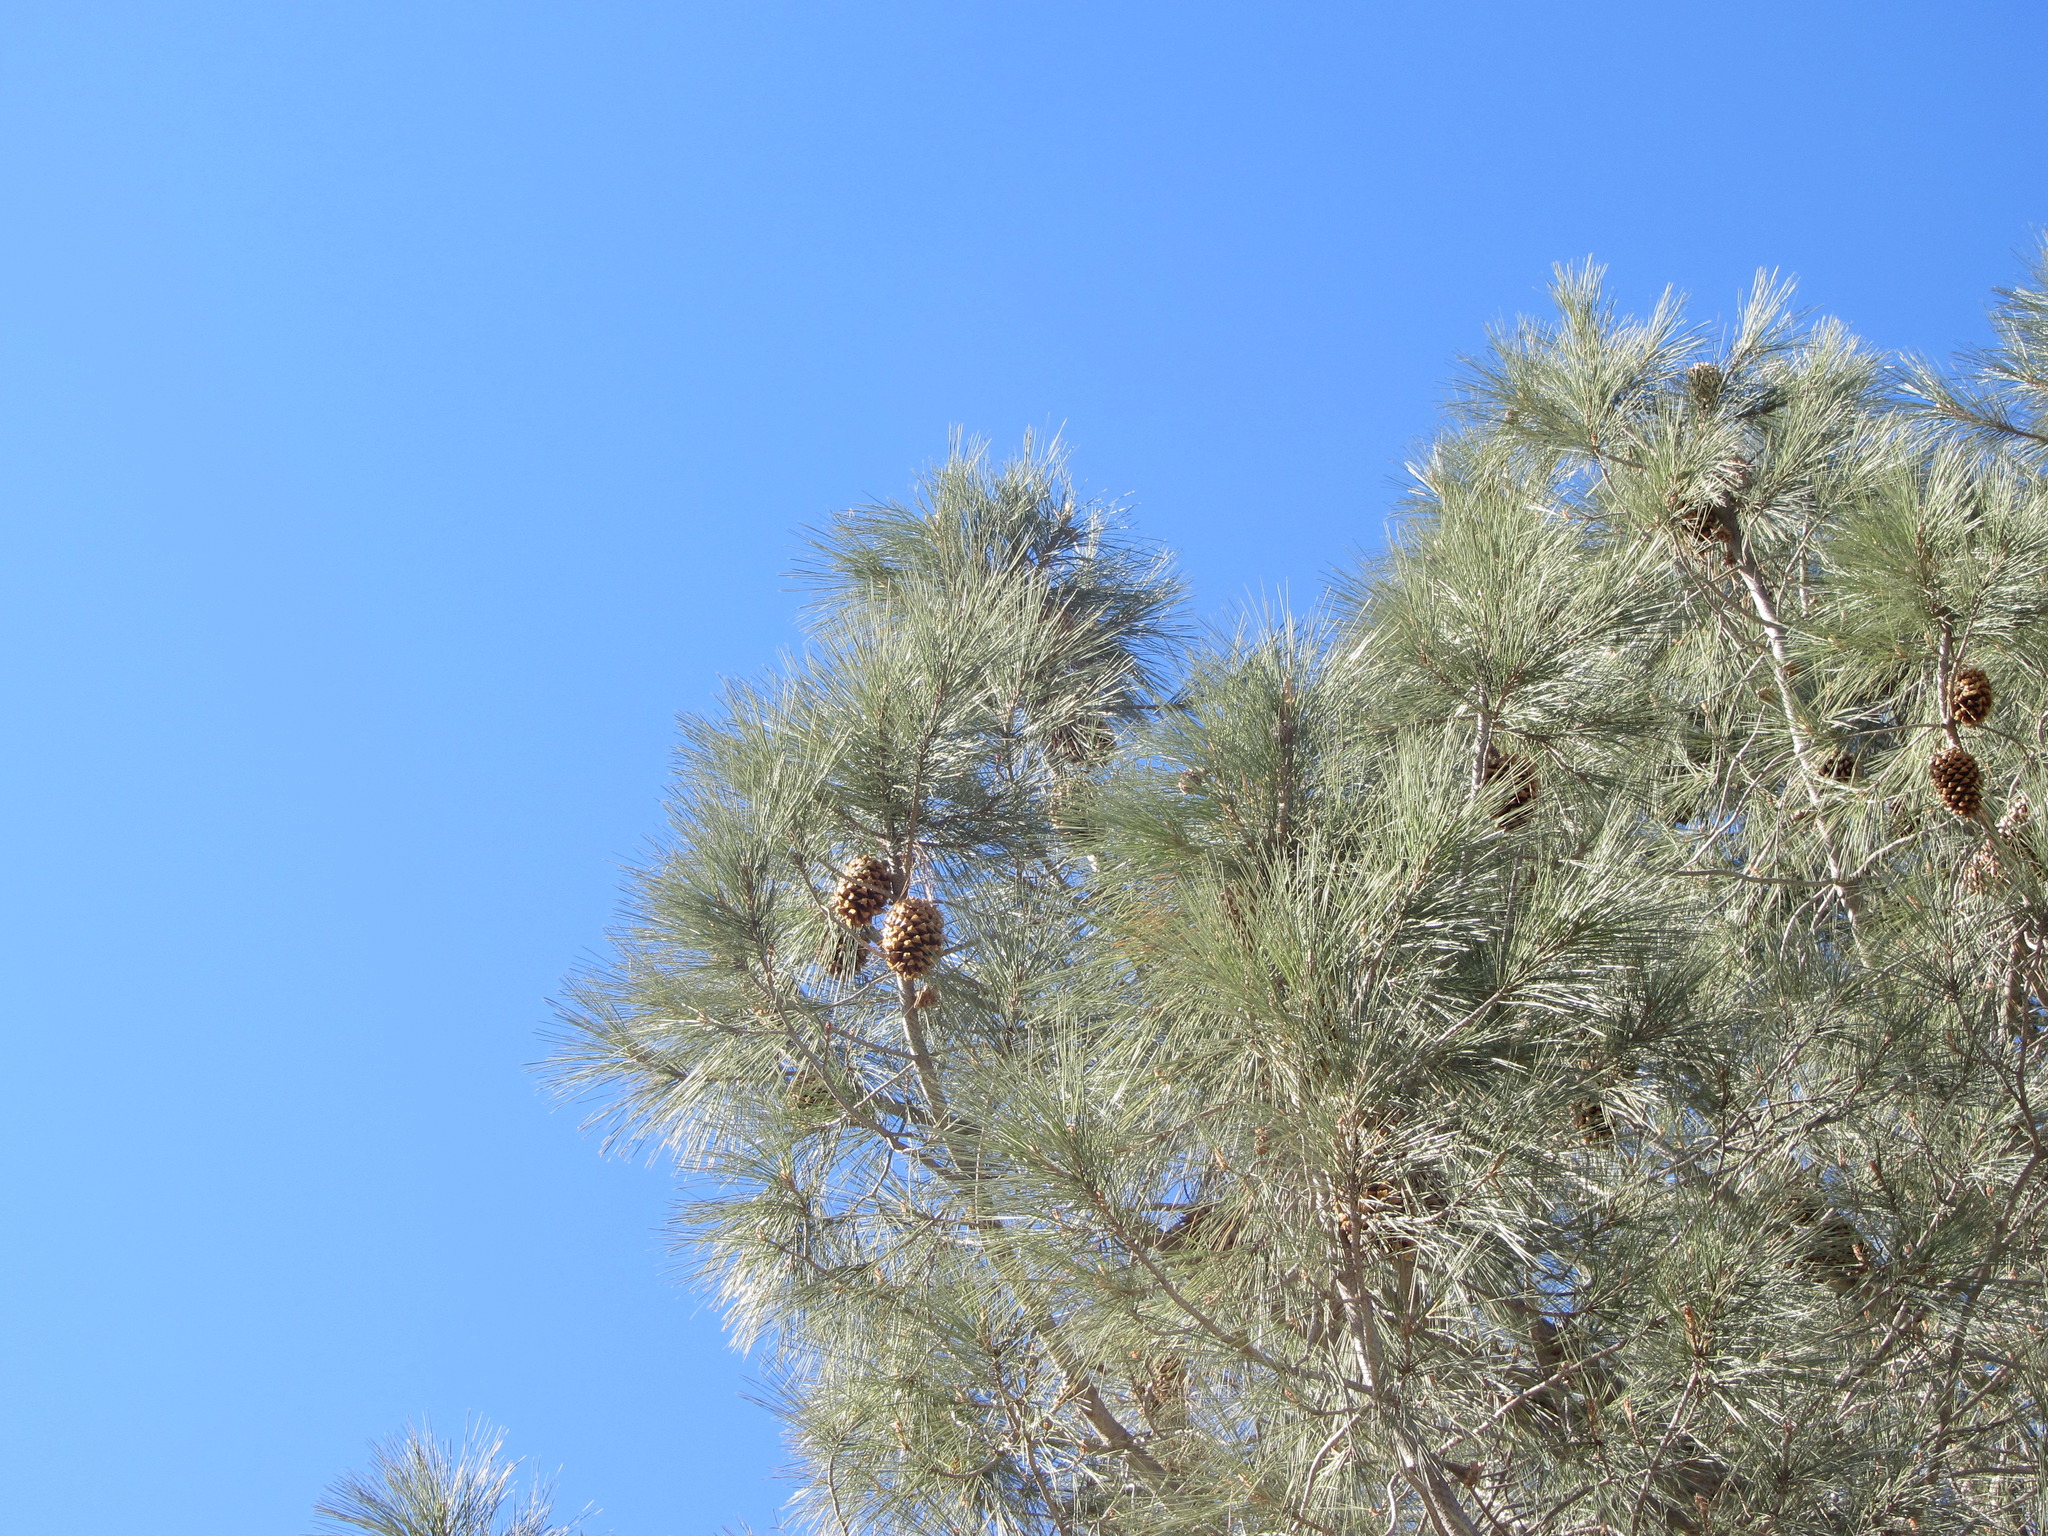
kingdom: Plantae
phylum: Tracheophyta
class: Pinopsida
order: Pinales
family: Pinaceae
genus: Pinus
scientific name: Pinus sabiniana
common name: Bull pine
